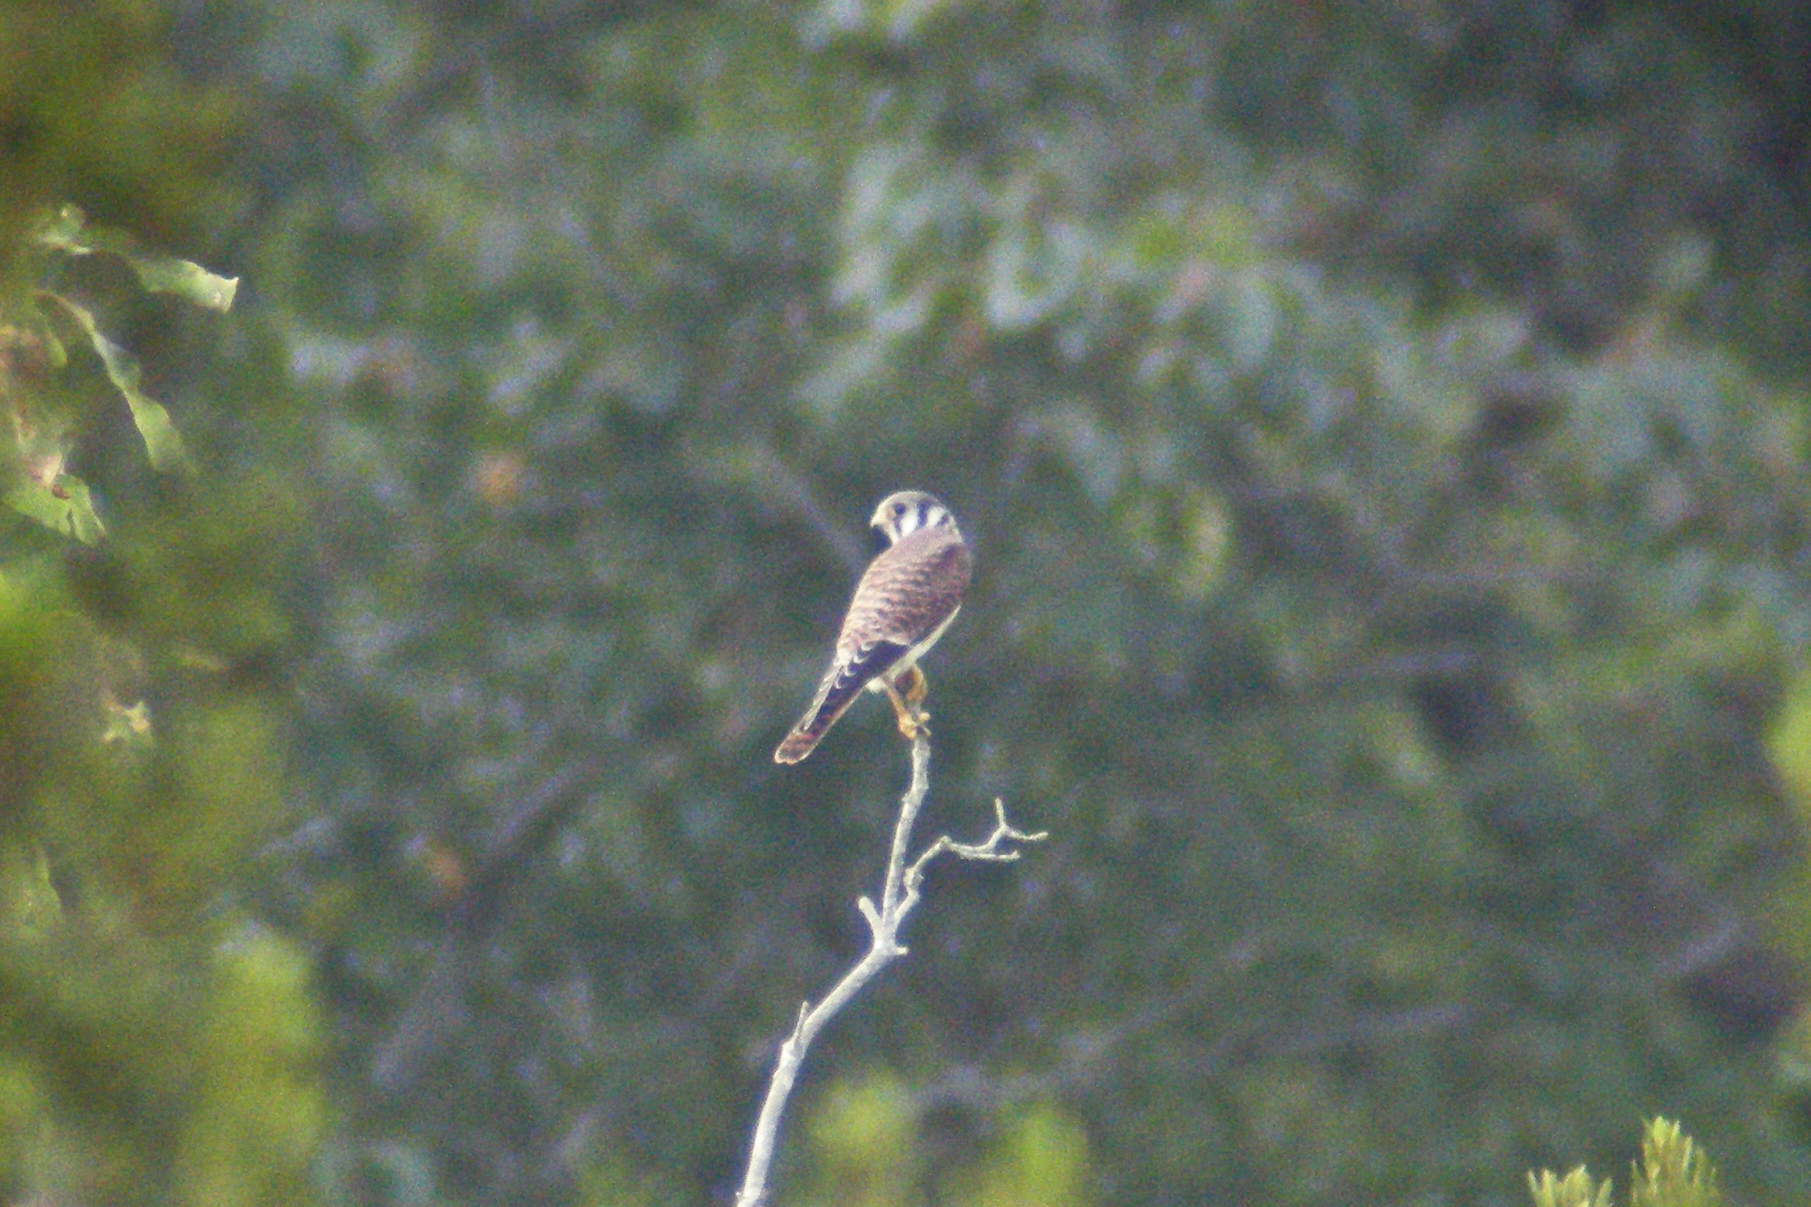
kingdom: Animalia
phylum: Chordata
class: Aves
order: Falconiformes
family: Falconidae
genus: Falco
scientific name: Falco sparverius
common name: American kestrel
